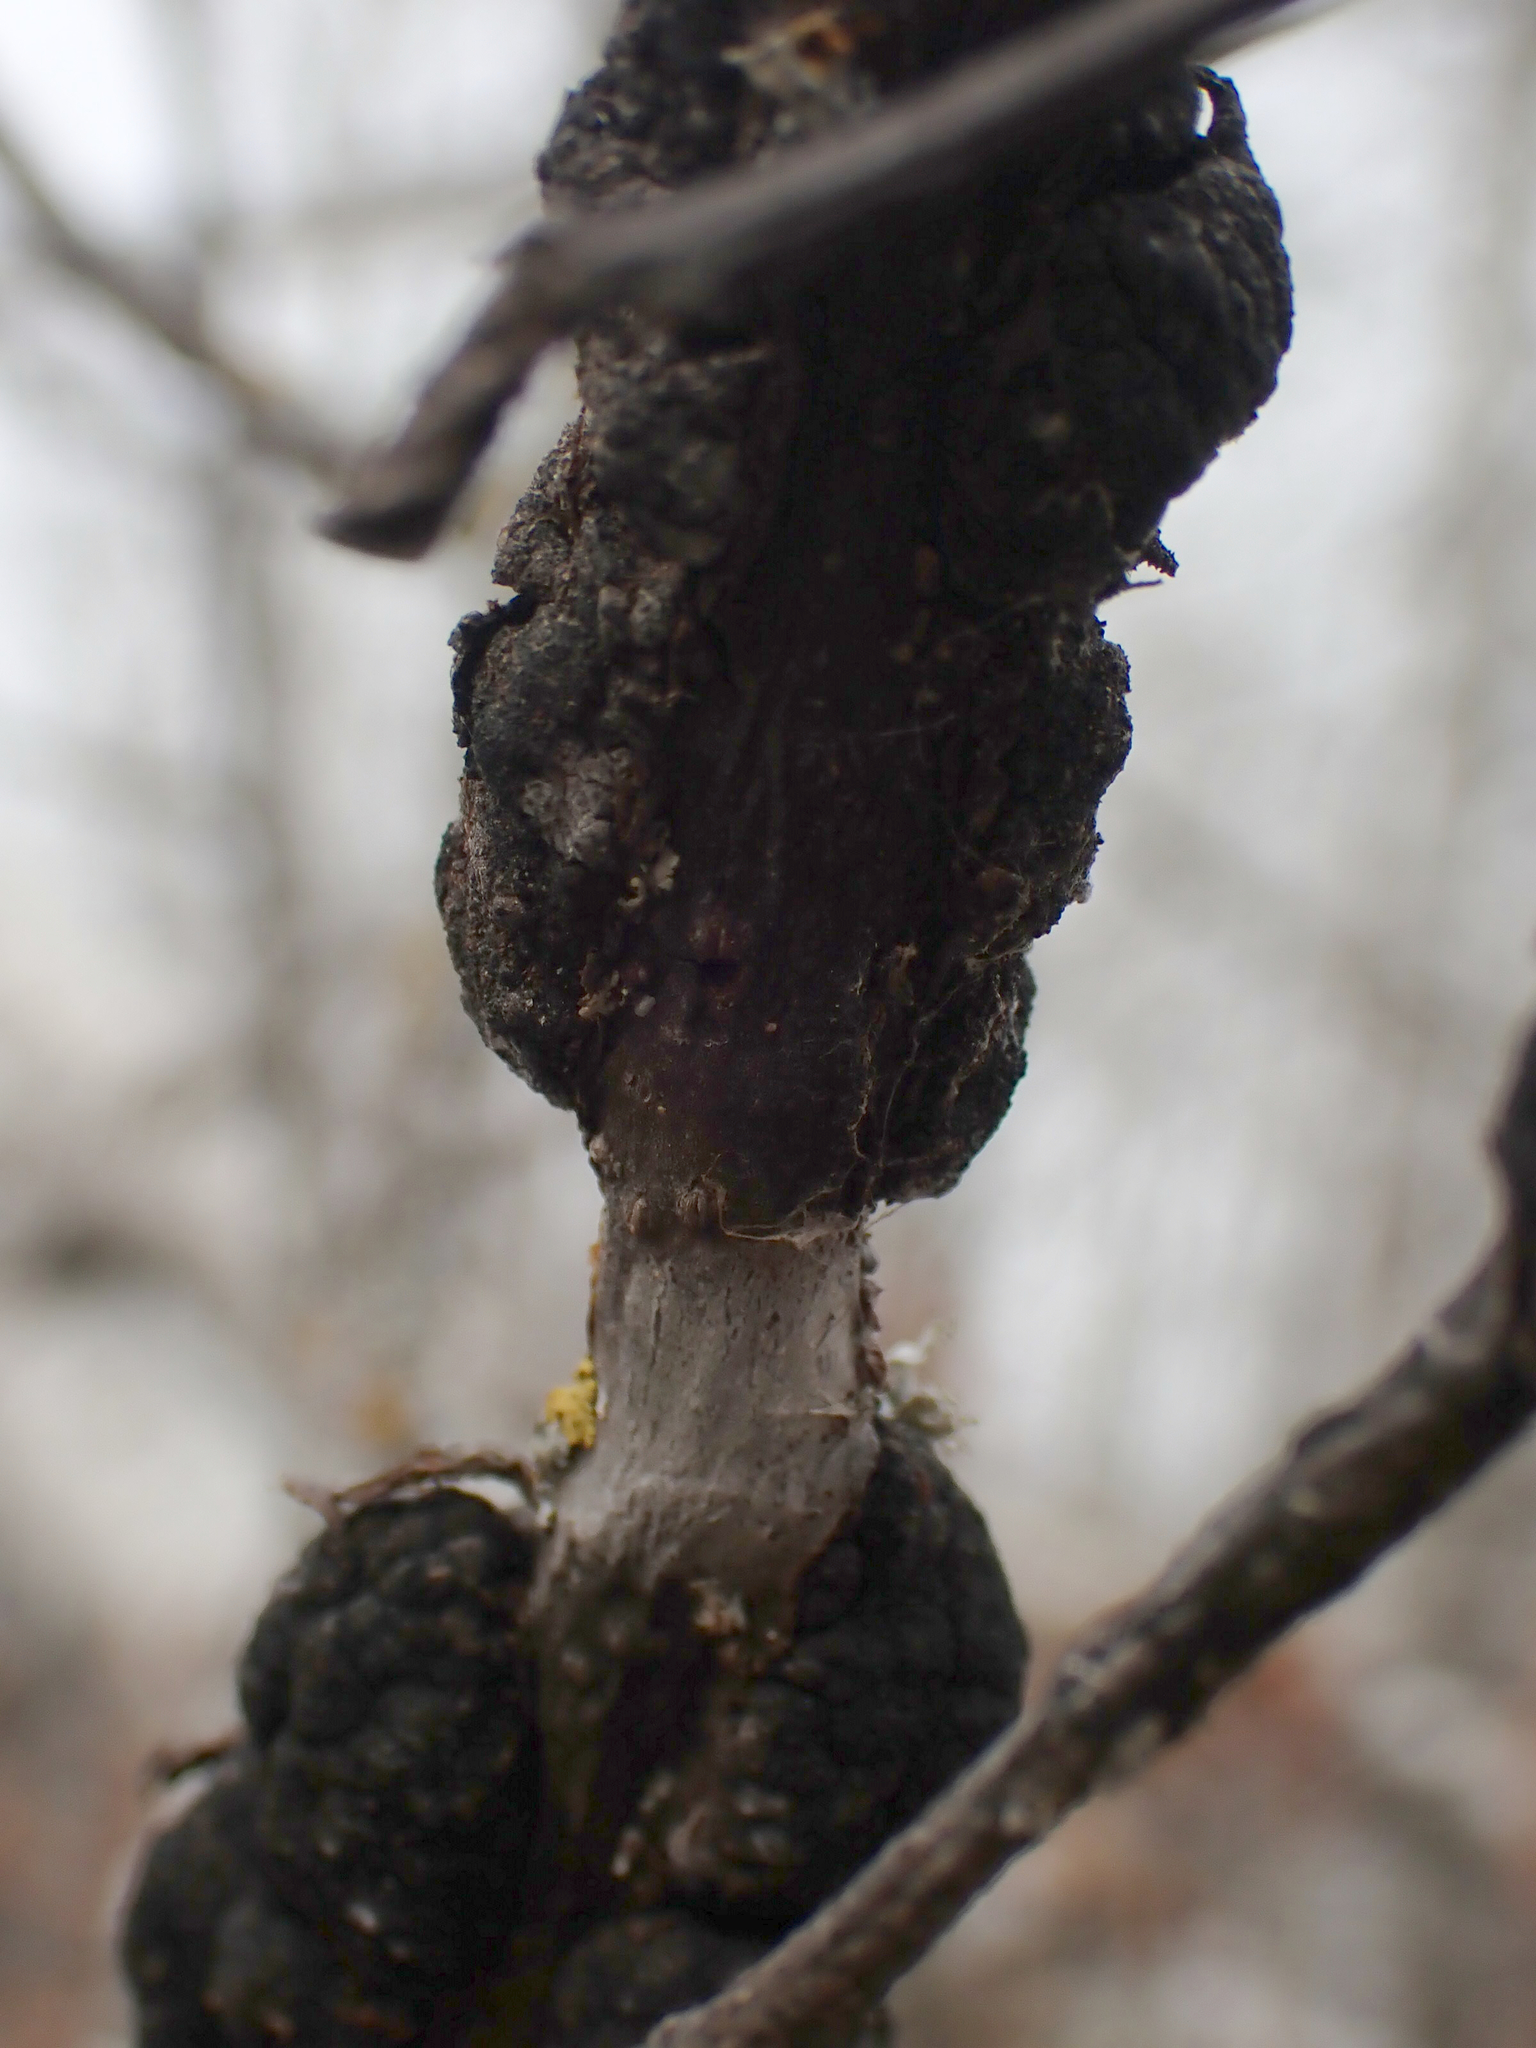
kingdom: Fungi
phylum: Ascomycota
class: Dothideomycetes
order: Venturiales
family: Venturiaceae
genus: Apiosporina
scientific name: Apiosporina morbosa
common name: Black knot
